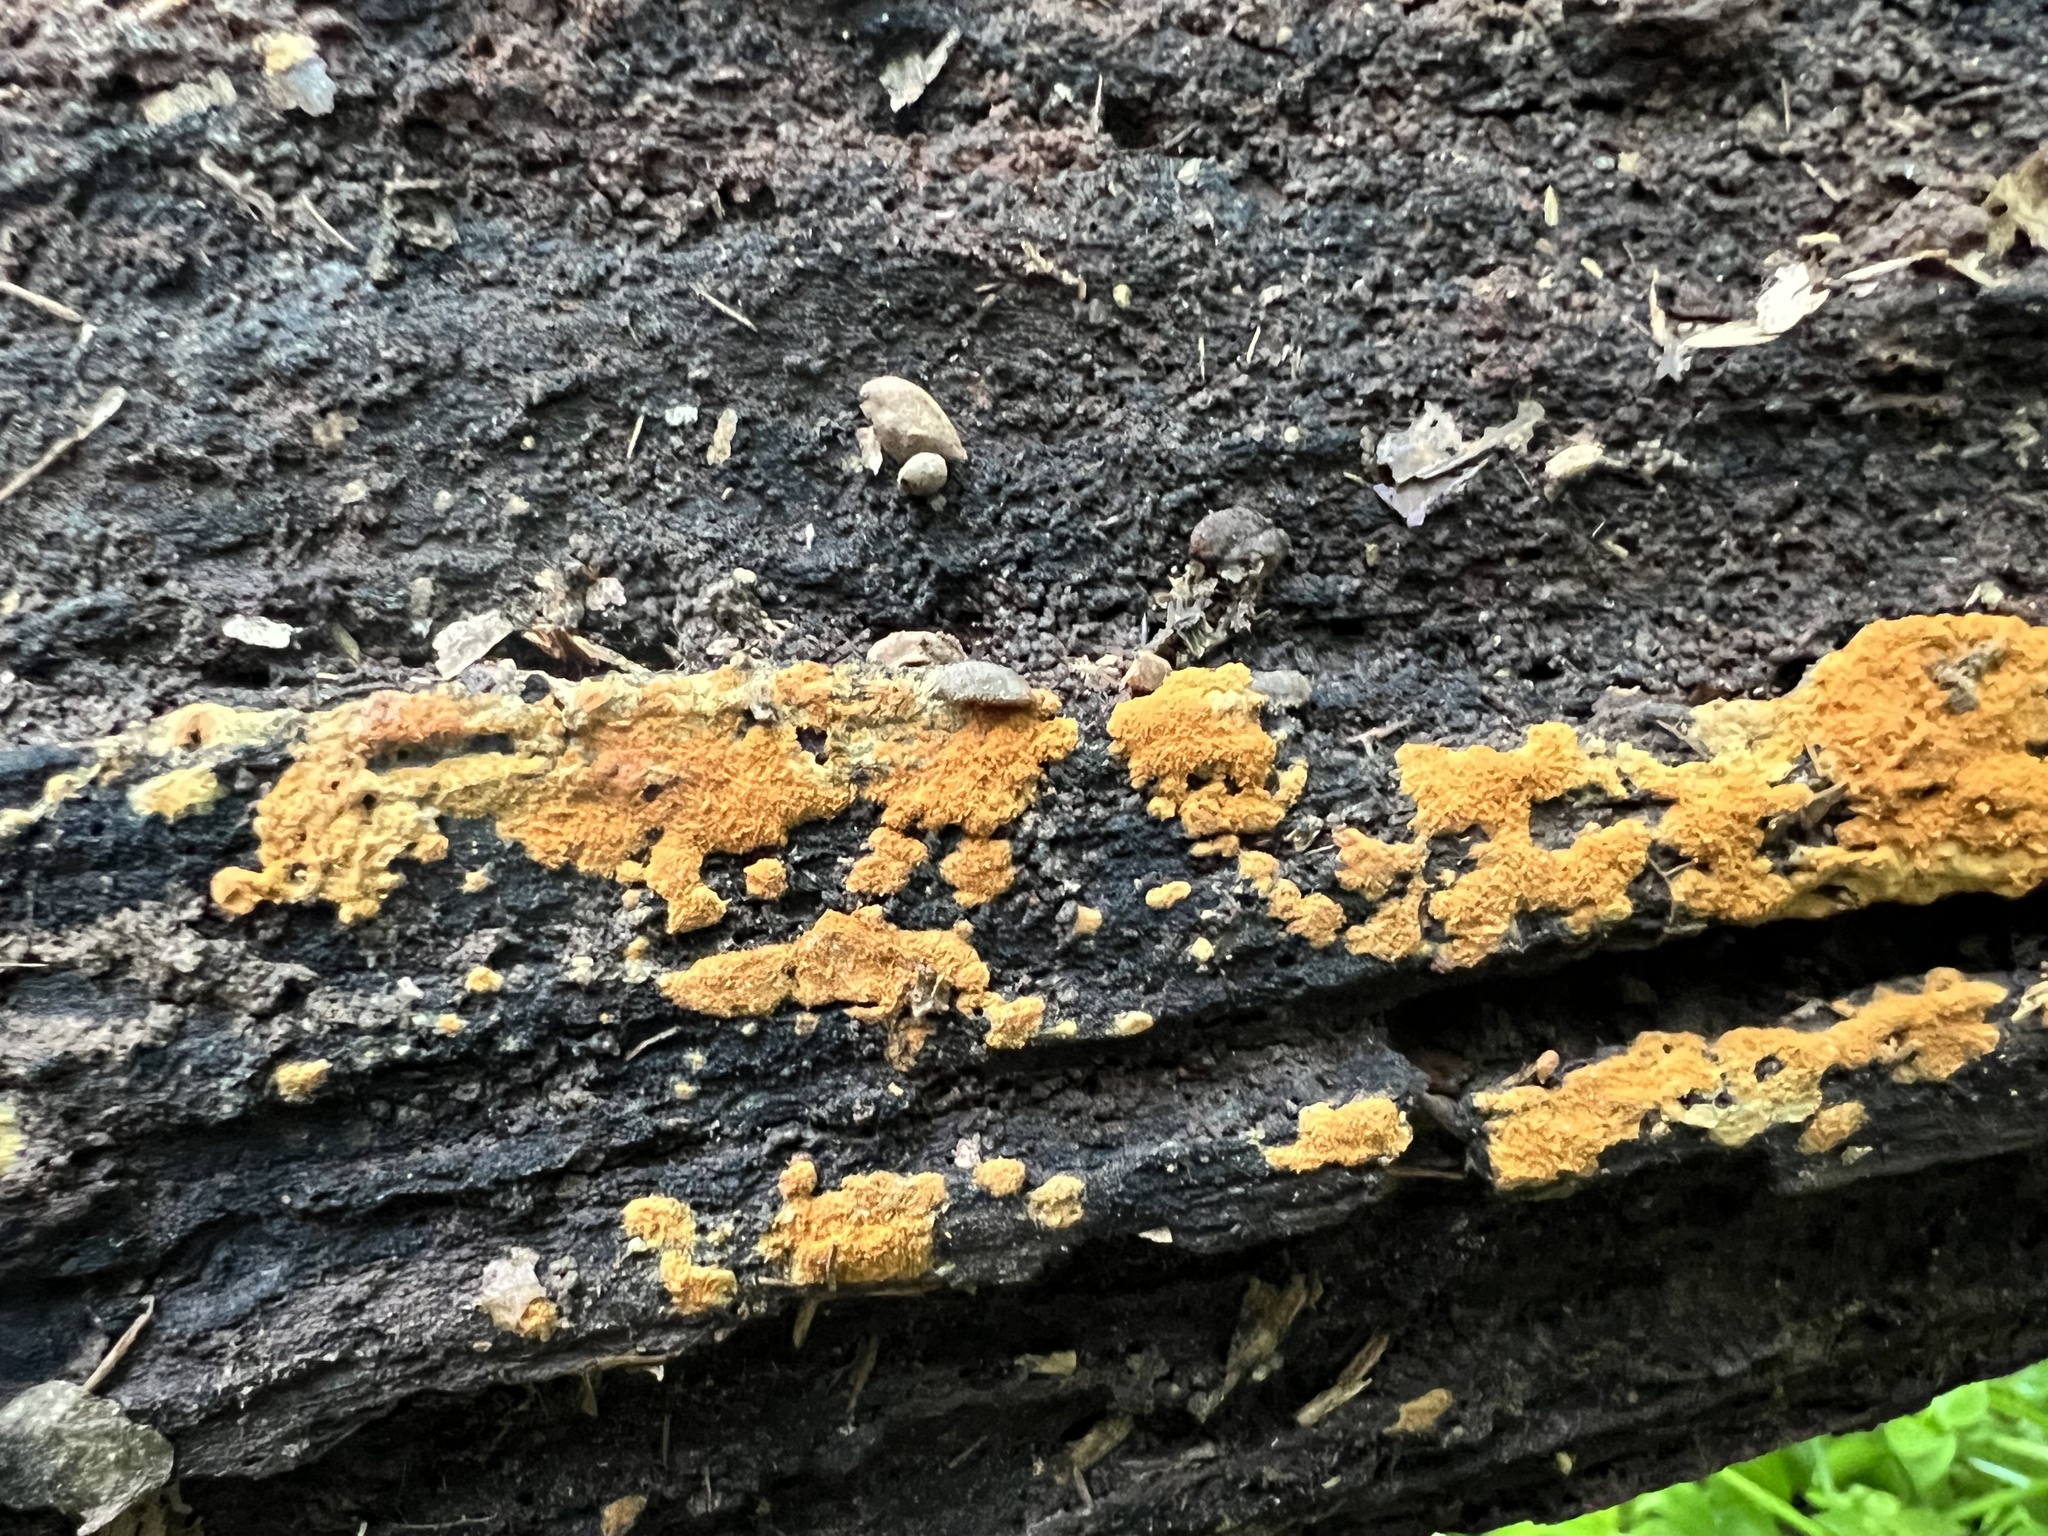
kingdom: Fungi
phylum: Basidiomycota
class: Agaricomycetes
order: Cantharellales
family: Botryobasidiaceae
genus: Botryobasidium
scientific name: Botryobasidium aureum
